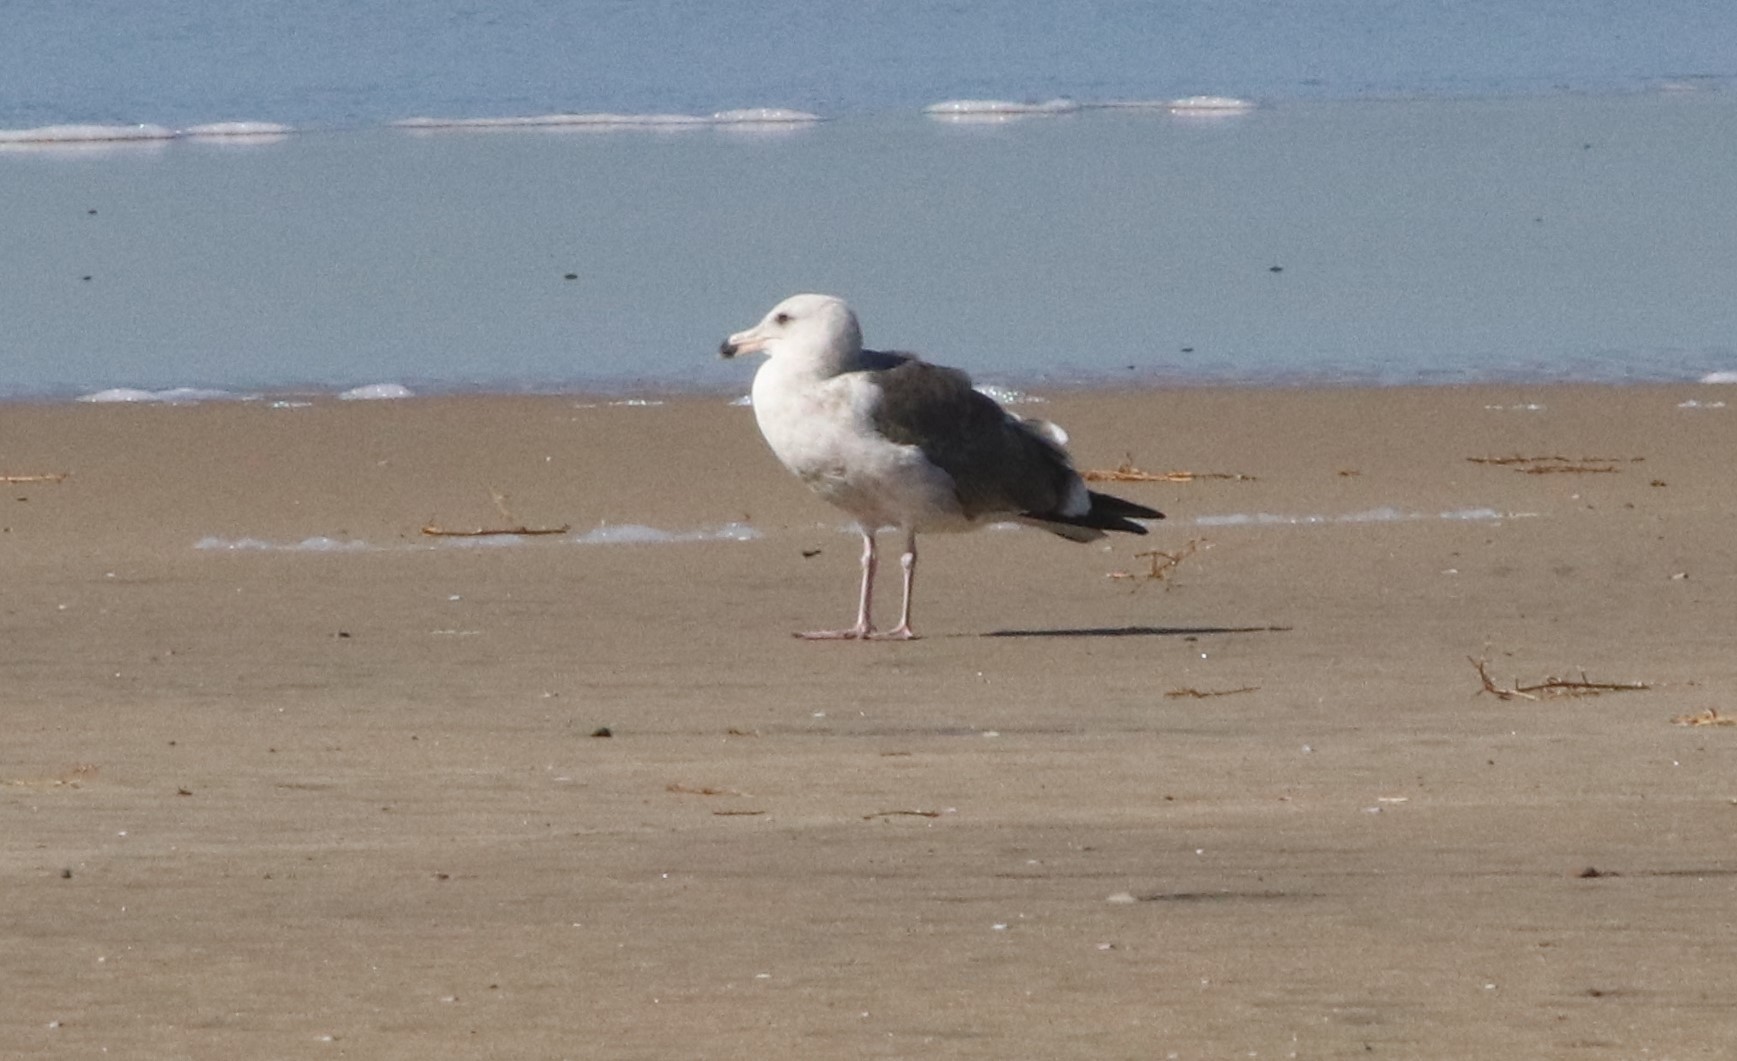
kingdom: Animalia
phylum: Chordata
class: Aves
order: Charadriiformes
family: Laridae
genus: Larus
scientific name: Larus occidentalis
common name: Western gull
